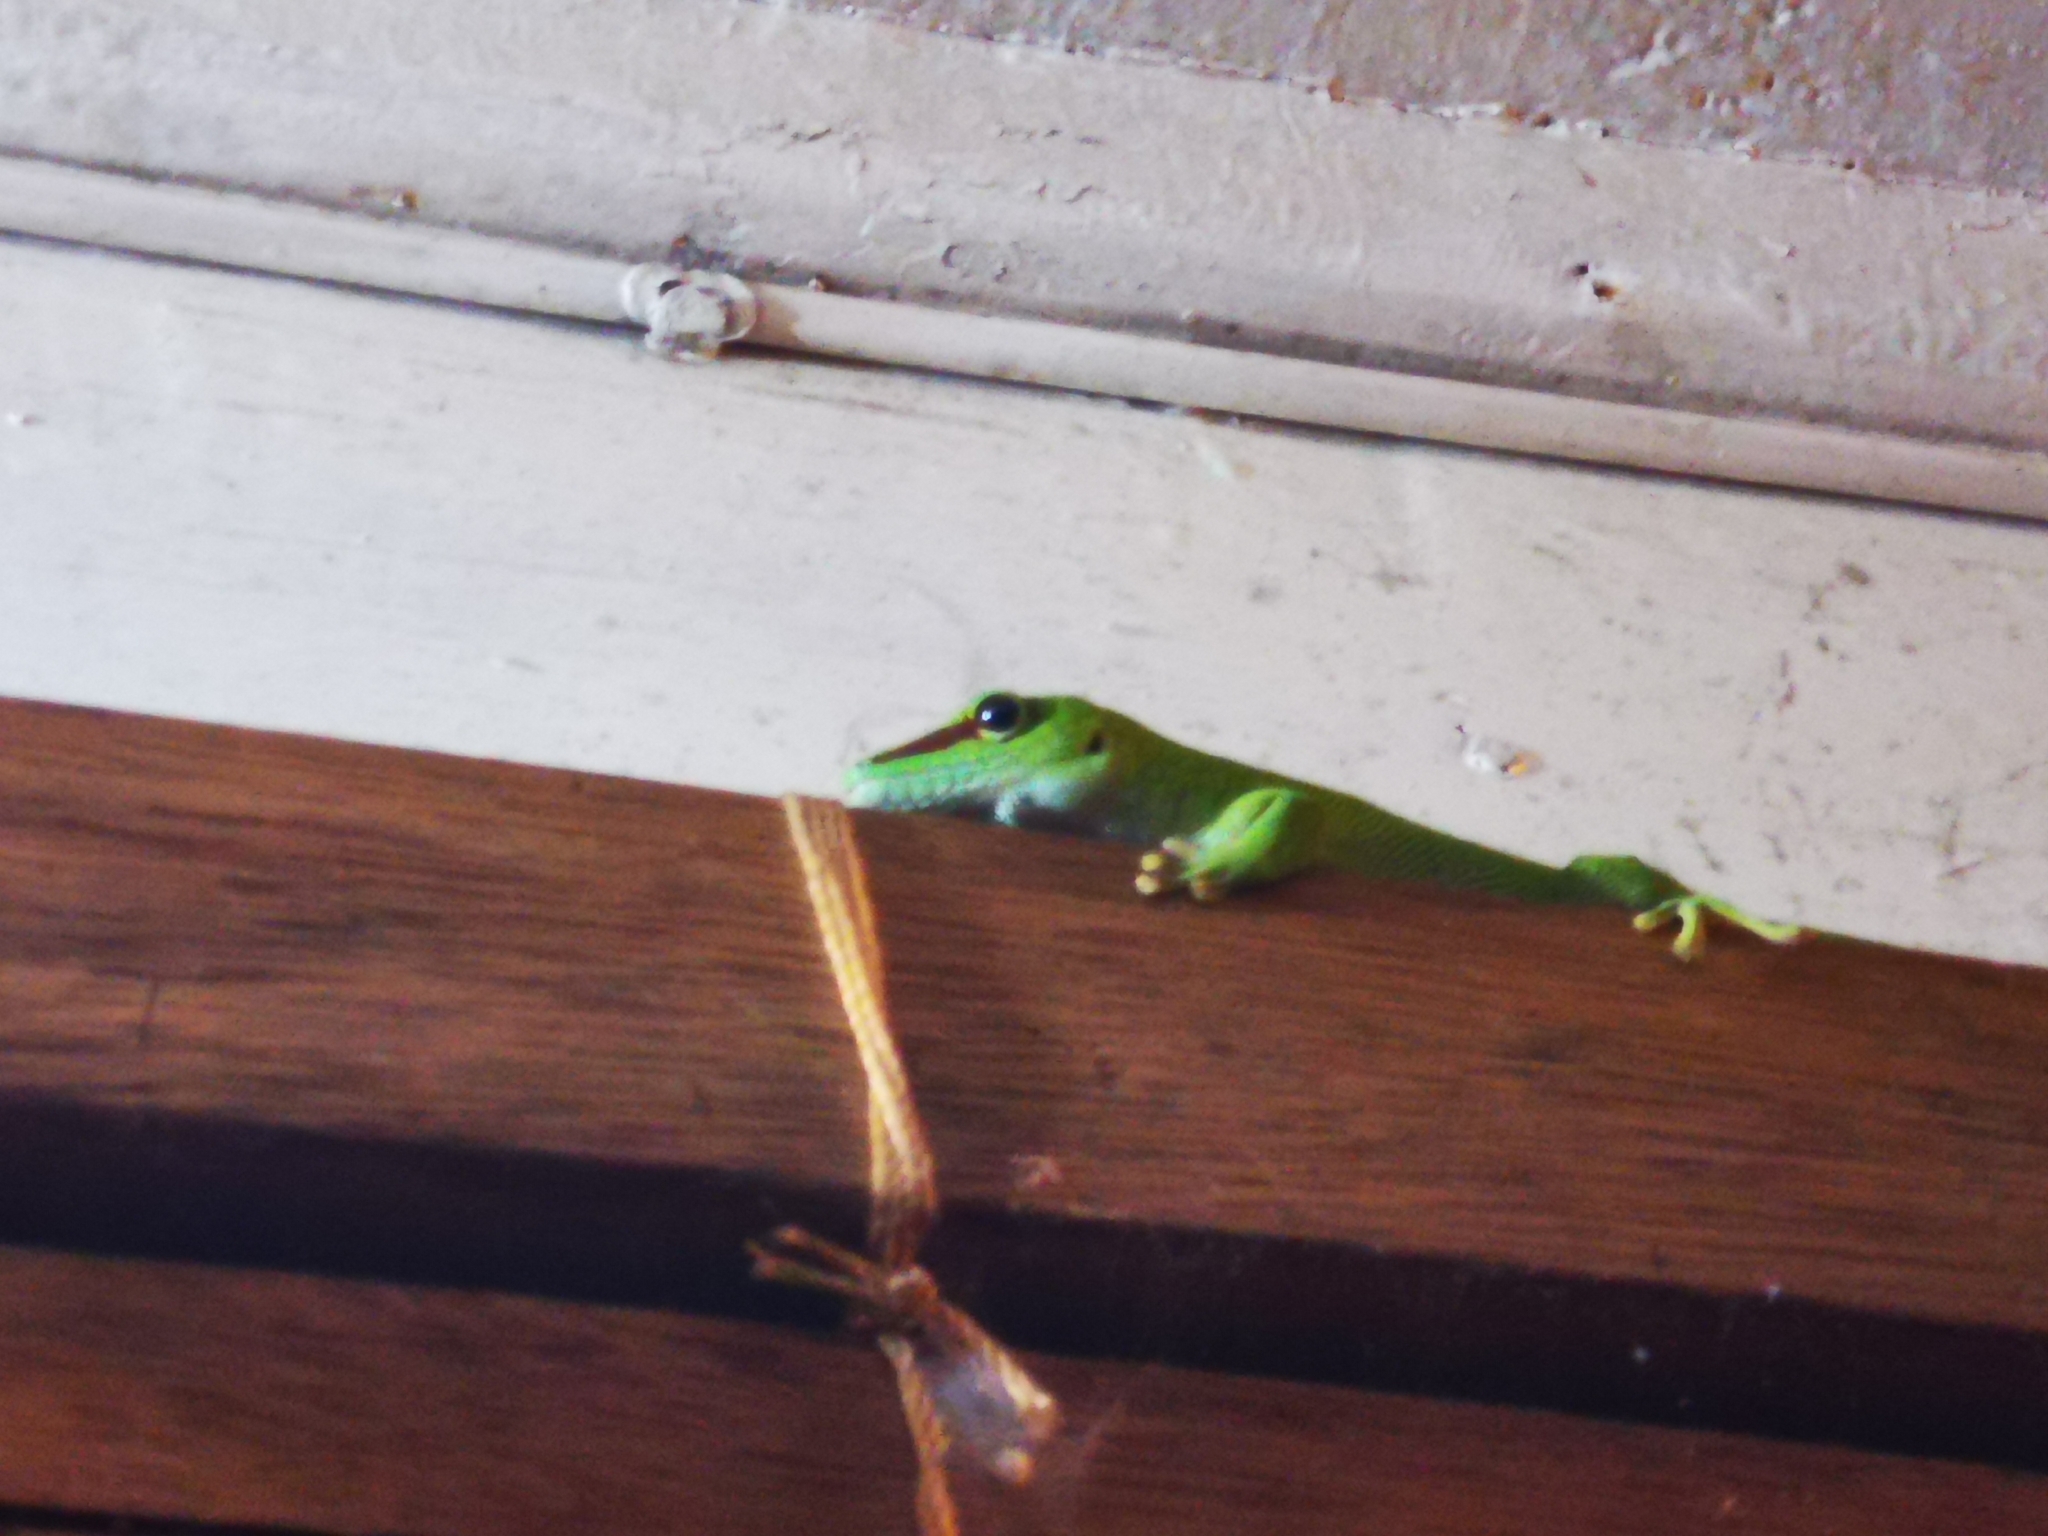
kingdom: Animalia
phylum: Chordata
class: Squamata
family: Gekkonidae
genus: Phelsuma
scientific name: Phelsuma grandis
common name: Madagascar giant day gecko
